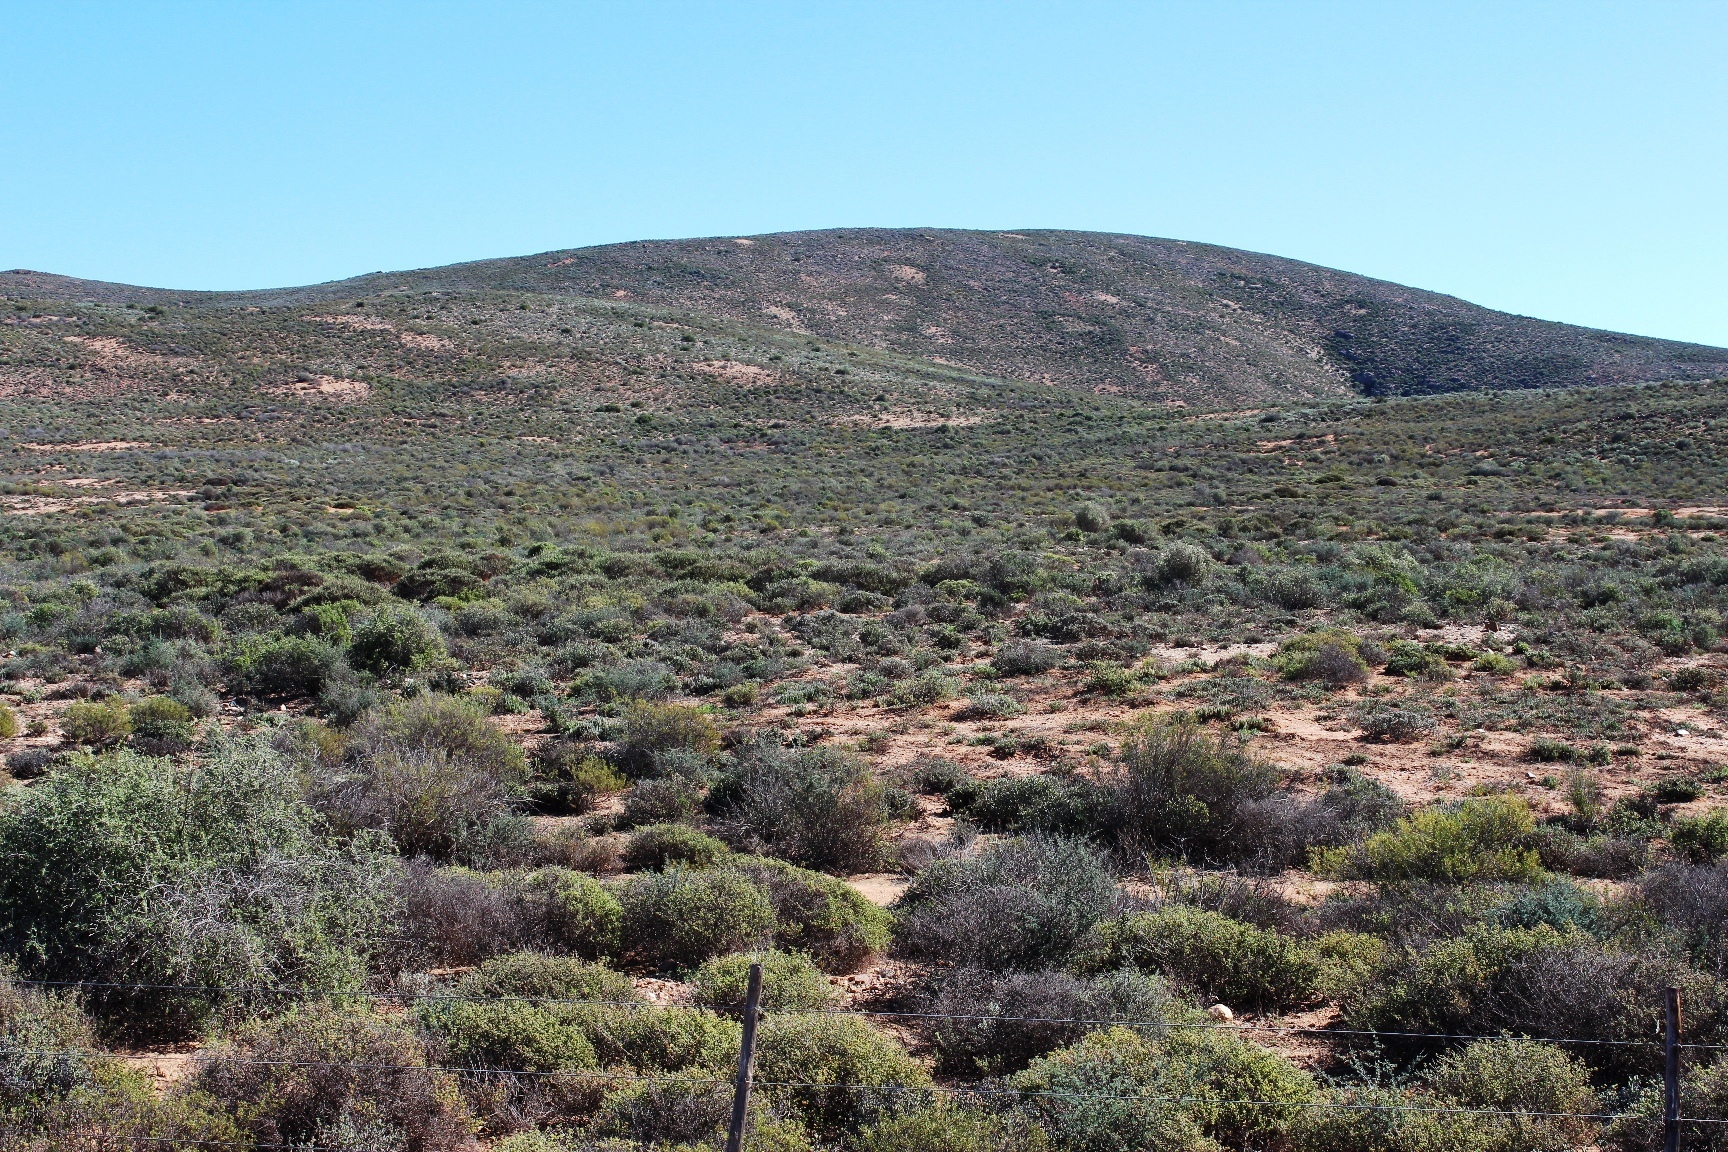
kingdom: Animalia
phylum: Arthropoda
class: Insecta
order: Blattodea
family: Hodotermitidae
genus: Microhodotermes
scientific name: Microhodotermes viator
